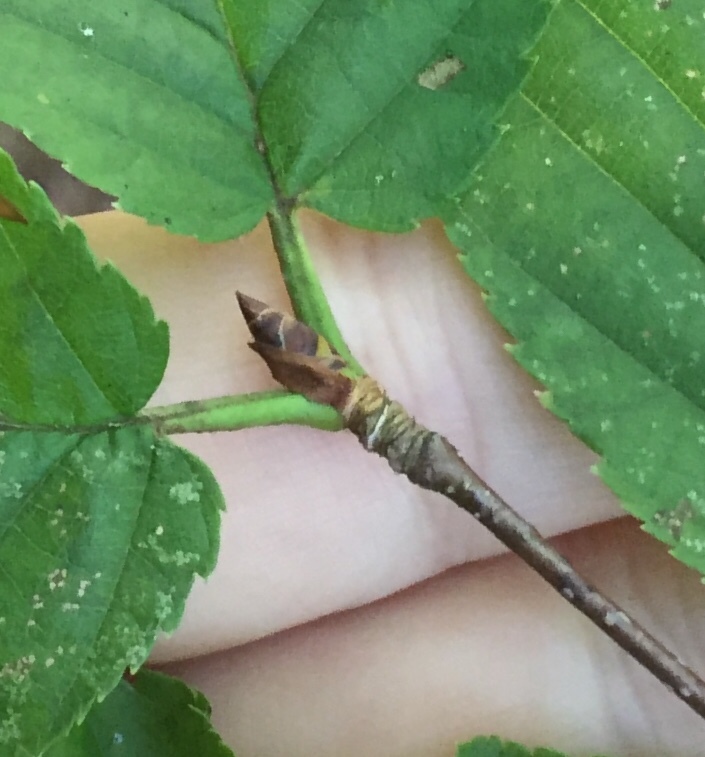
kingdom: Plantae
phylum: Tracheophyta
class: Magnoliopsida
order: Fagales
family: Betulaceae
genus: Betula
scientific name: Betula alleghaniensis
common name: Yellow birch
